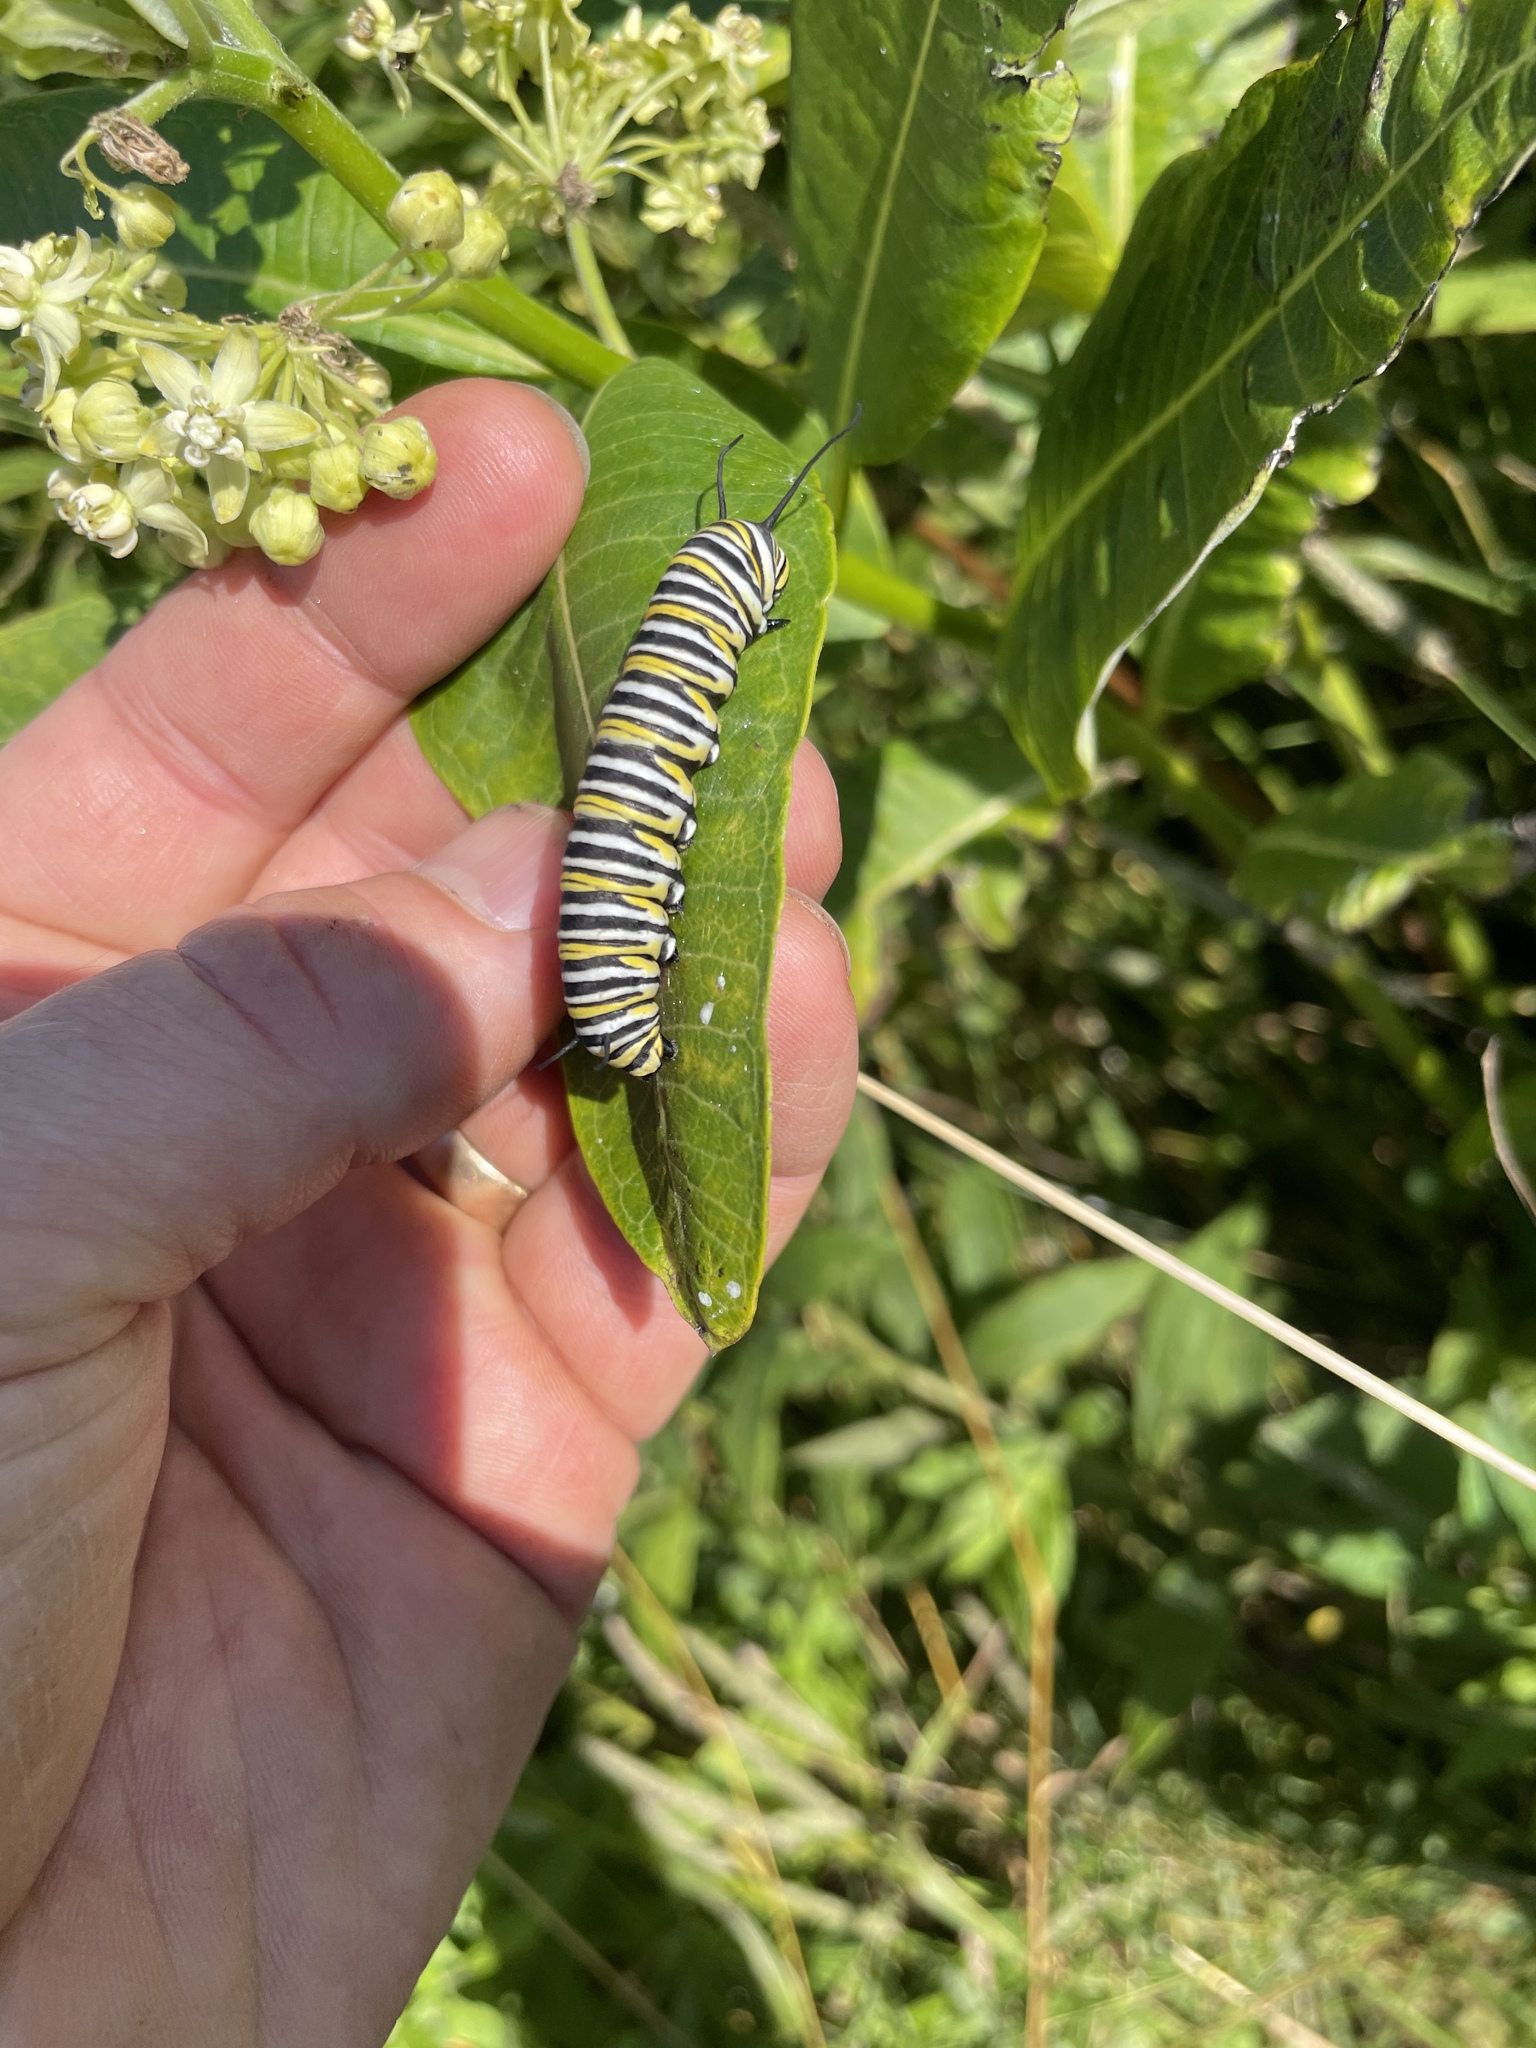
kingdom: Animalia
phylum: Arthropoda
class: Insecta
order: Lepidoptera
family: Nymphalidae
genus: Danaus
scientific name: Danaus plexippus
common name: Monarch
